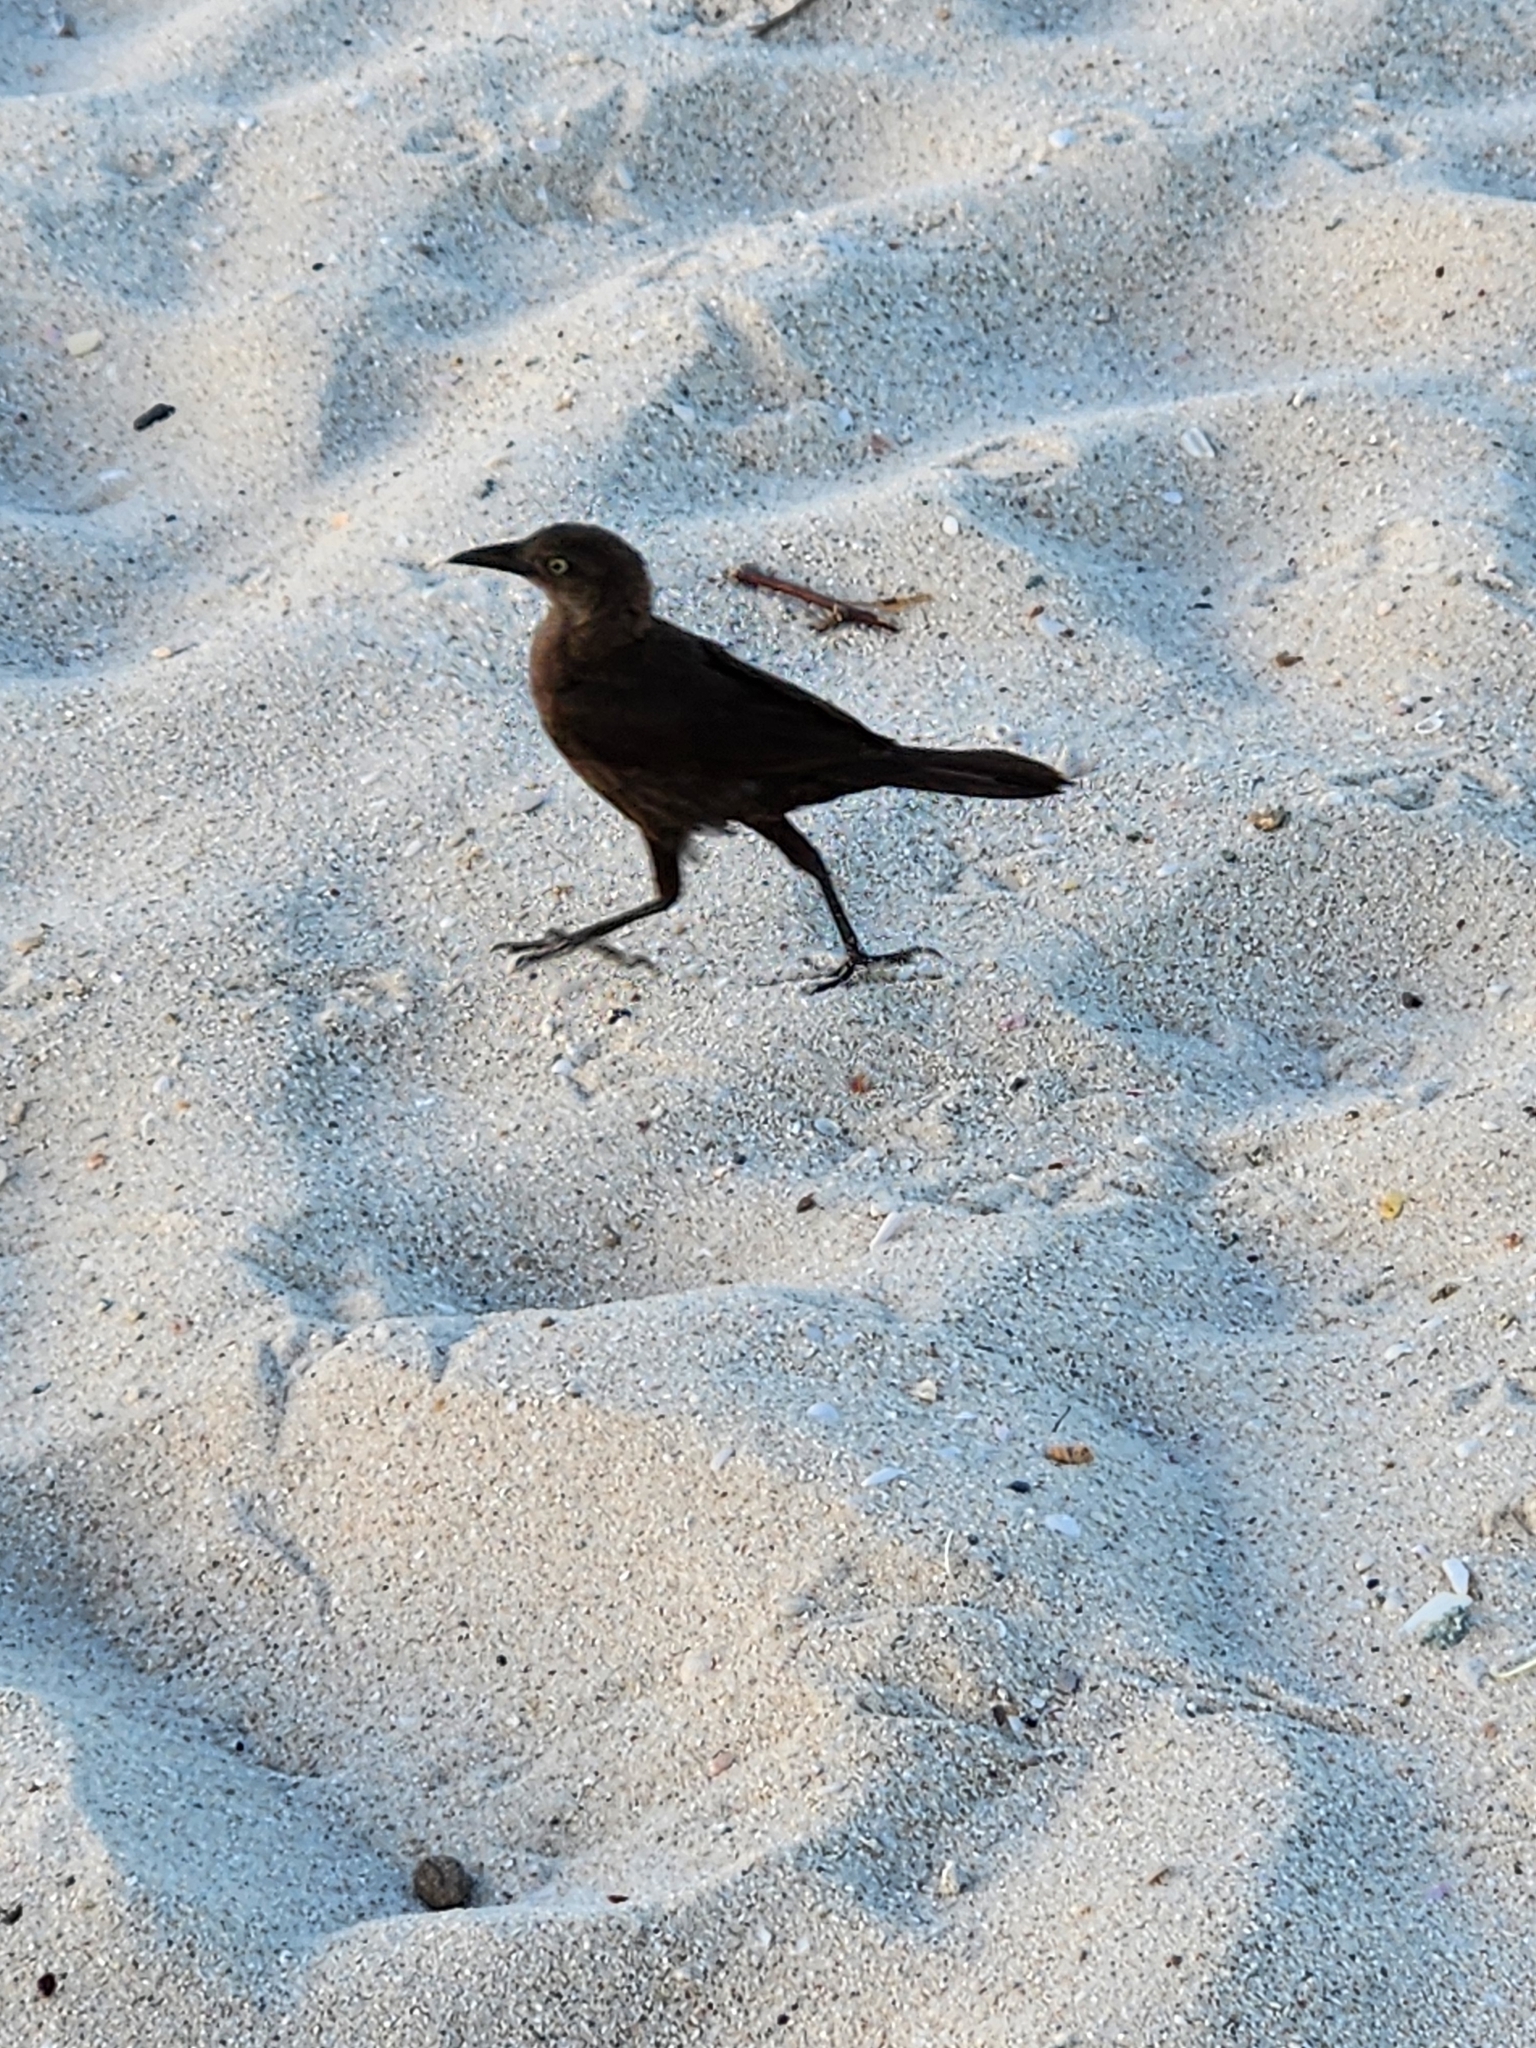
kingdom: Animalia
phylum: Chordata
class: Aves
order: Passeriformes
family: Icteridae
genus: Quiscalus
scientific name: Quiscalus lugubris
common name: Carib grackle
